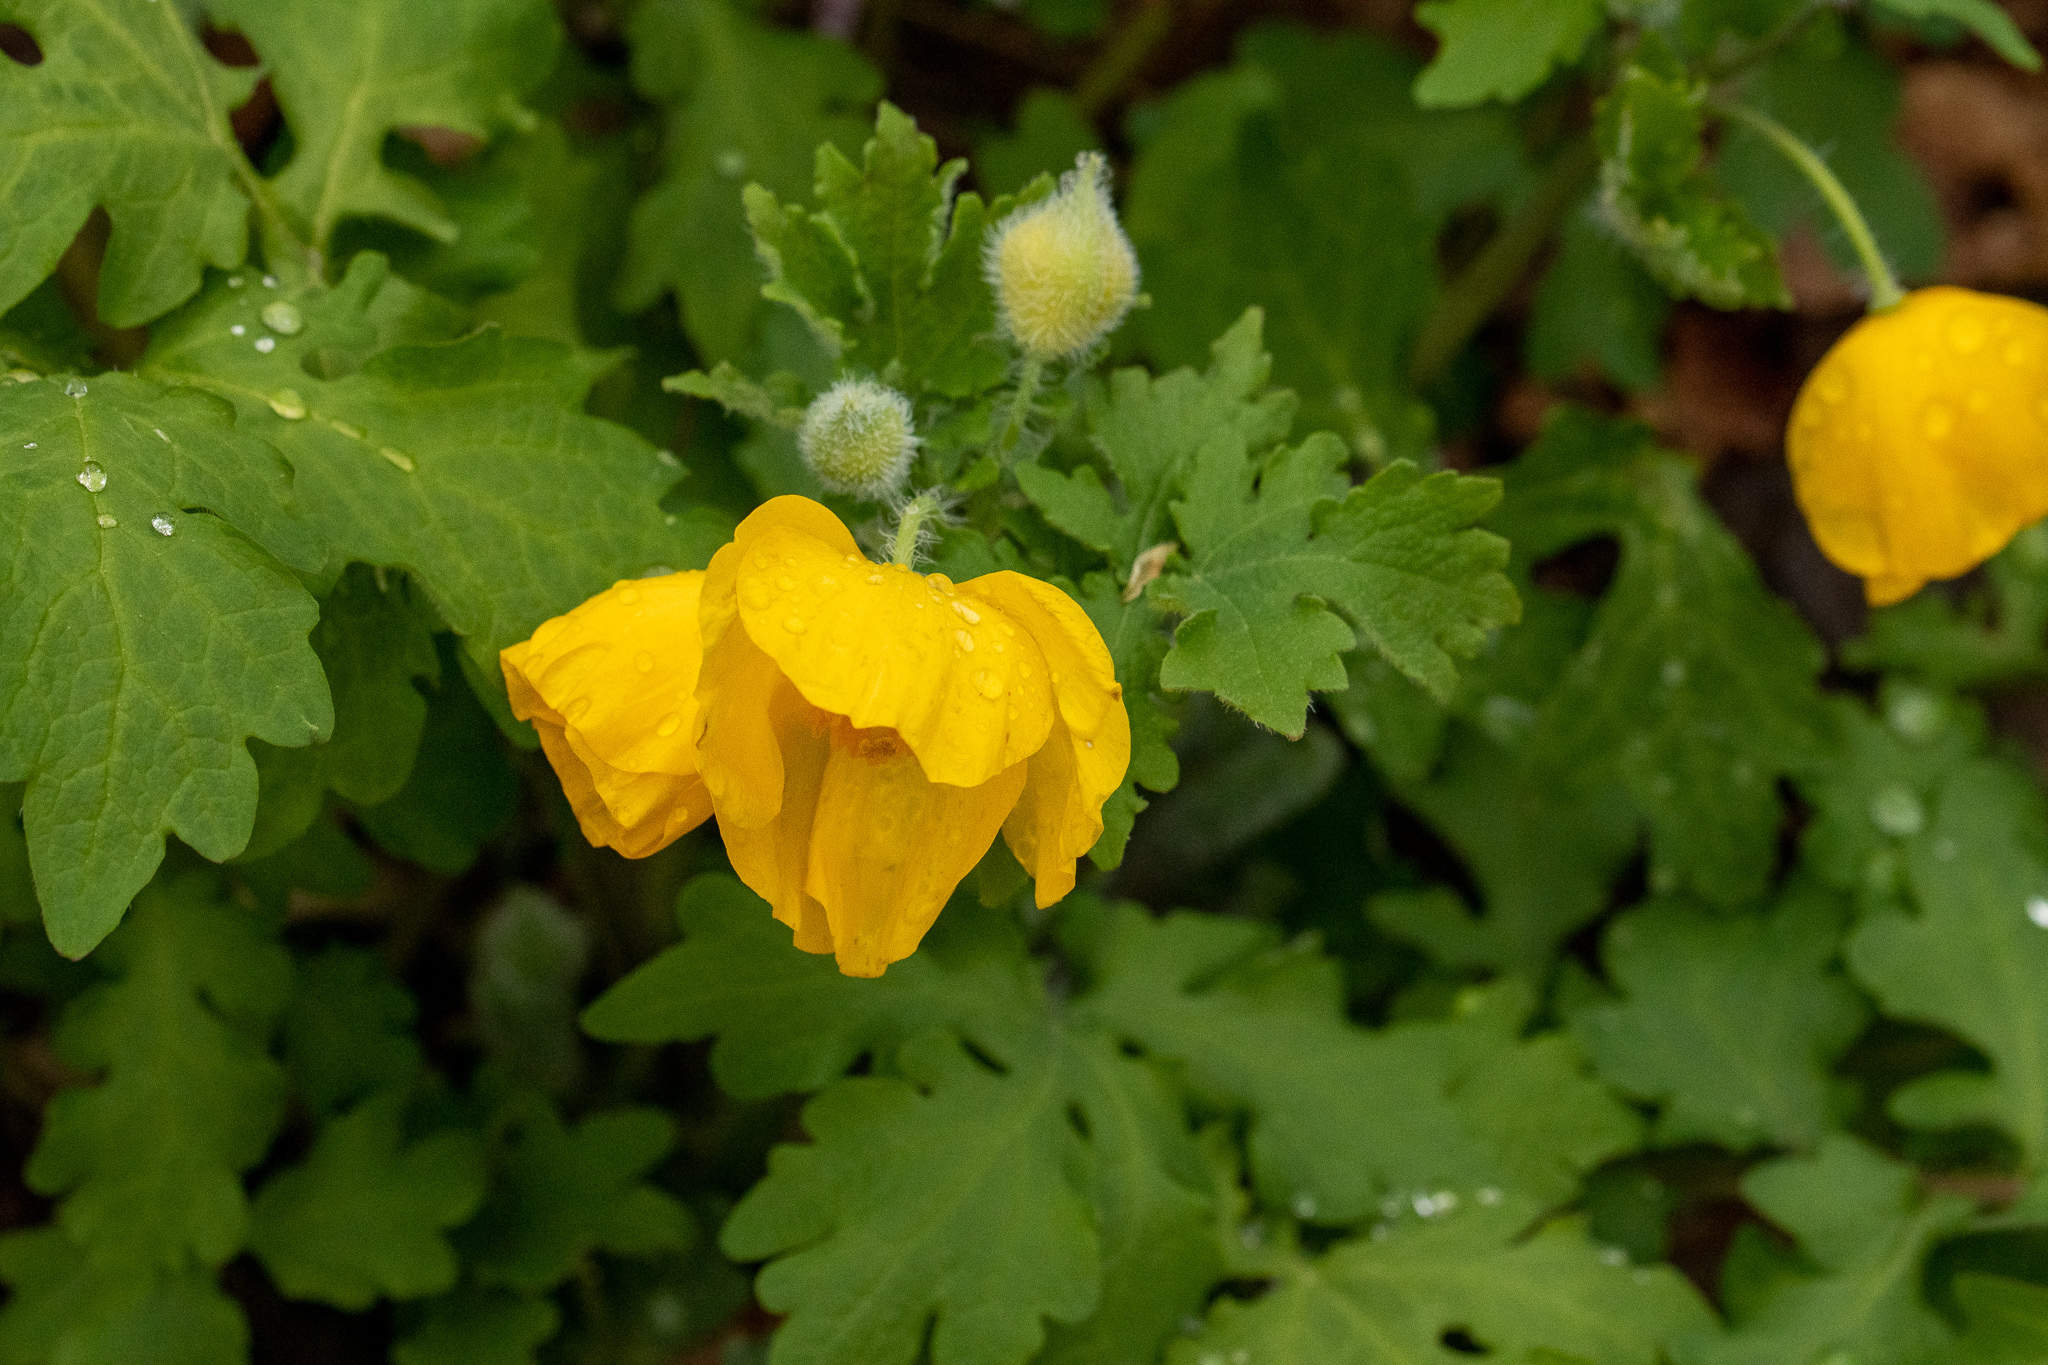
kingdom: Plantae
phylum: Tracheophyta
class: Magnoliopsida
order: Ranunculales
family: Papaveraceae
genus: Stylophorum
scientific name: Stylophorum diphyllum
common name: Celandine poppy
